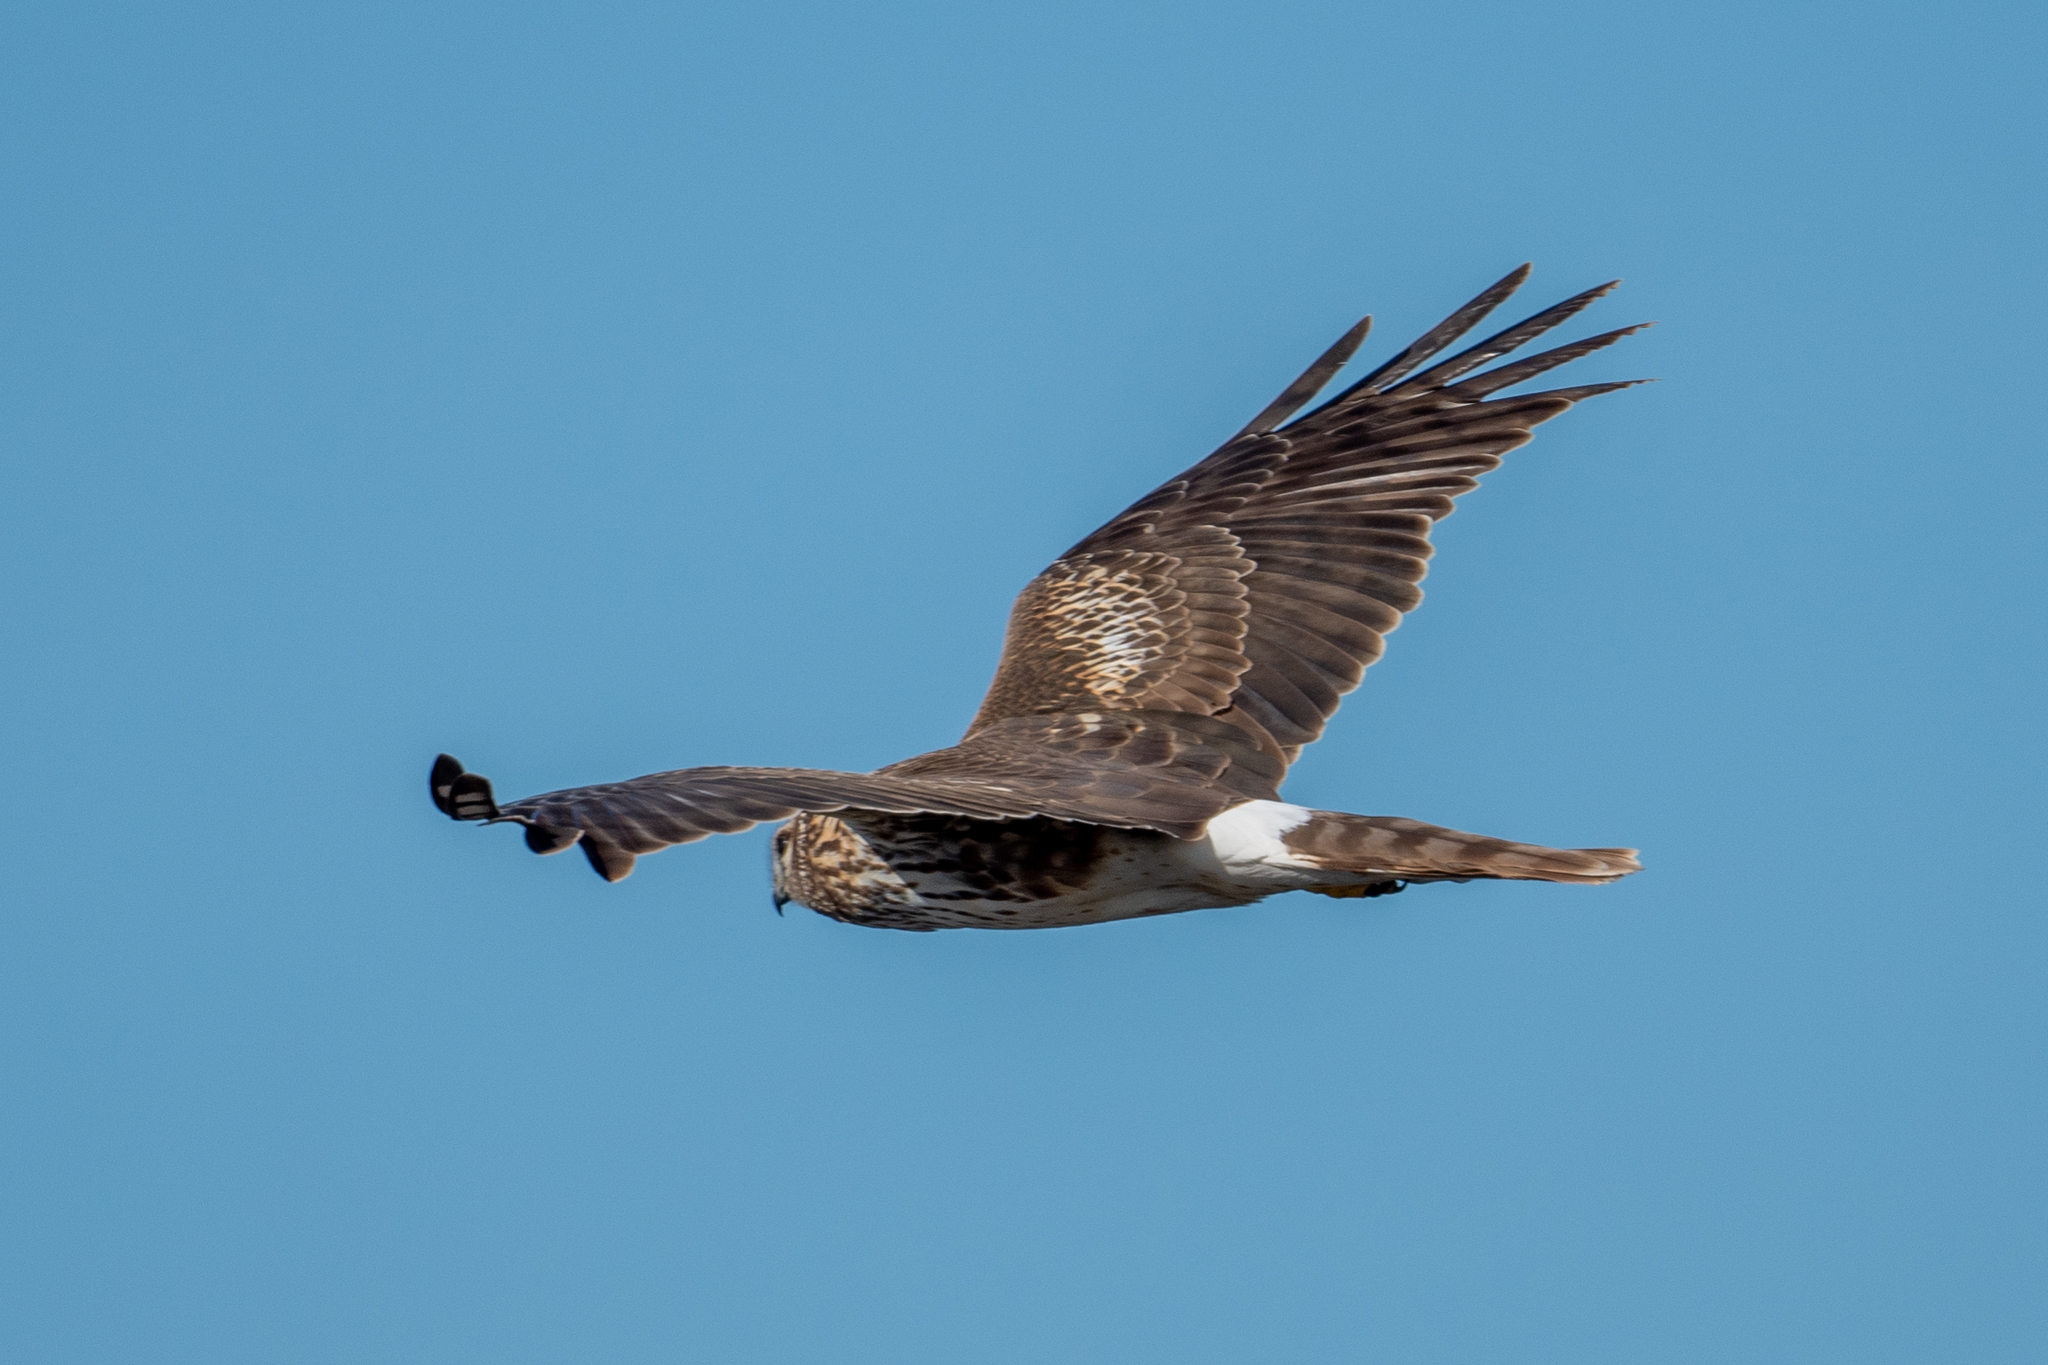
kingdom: Animalia
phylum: Chordata
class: Aves
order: Accipitriformes
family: Accipitridae
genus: Circus
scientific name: Circus cyaneus
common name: Hen harrier
